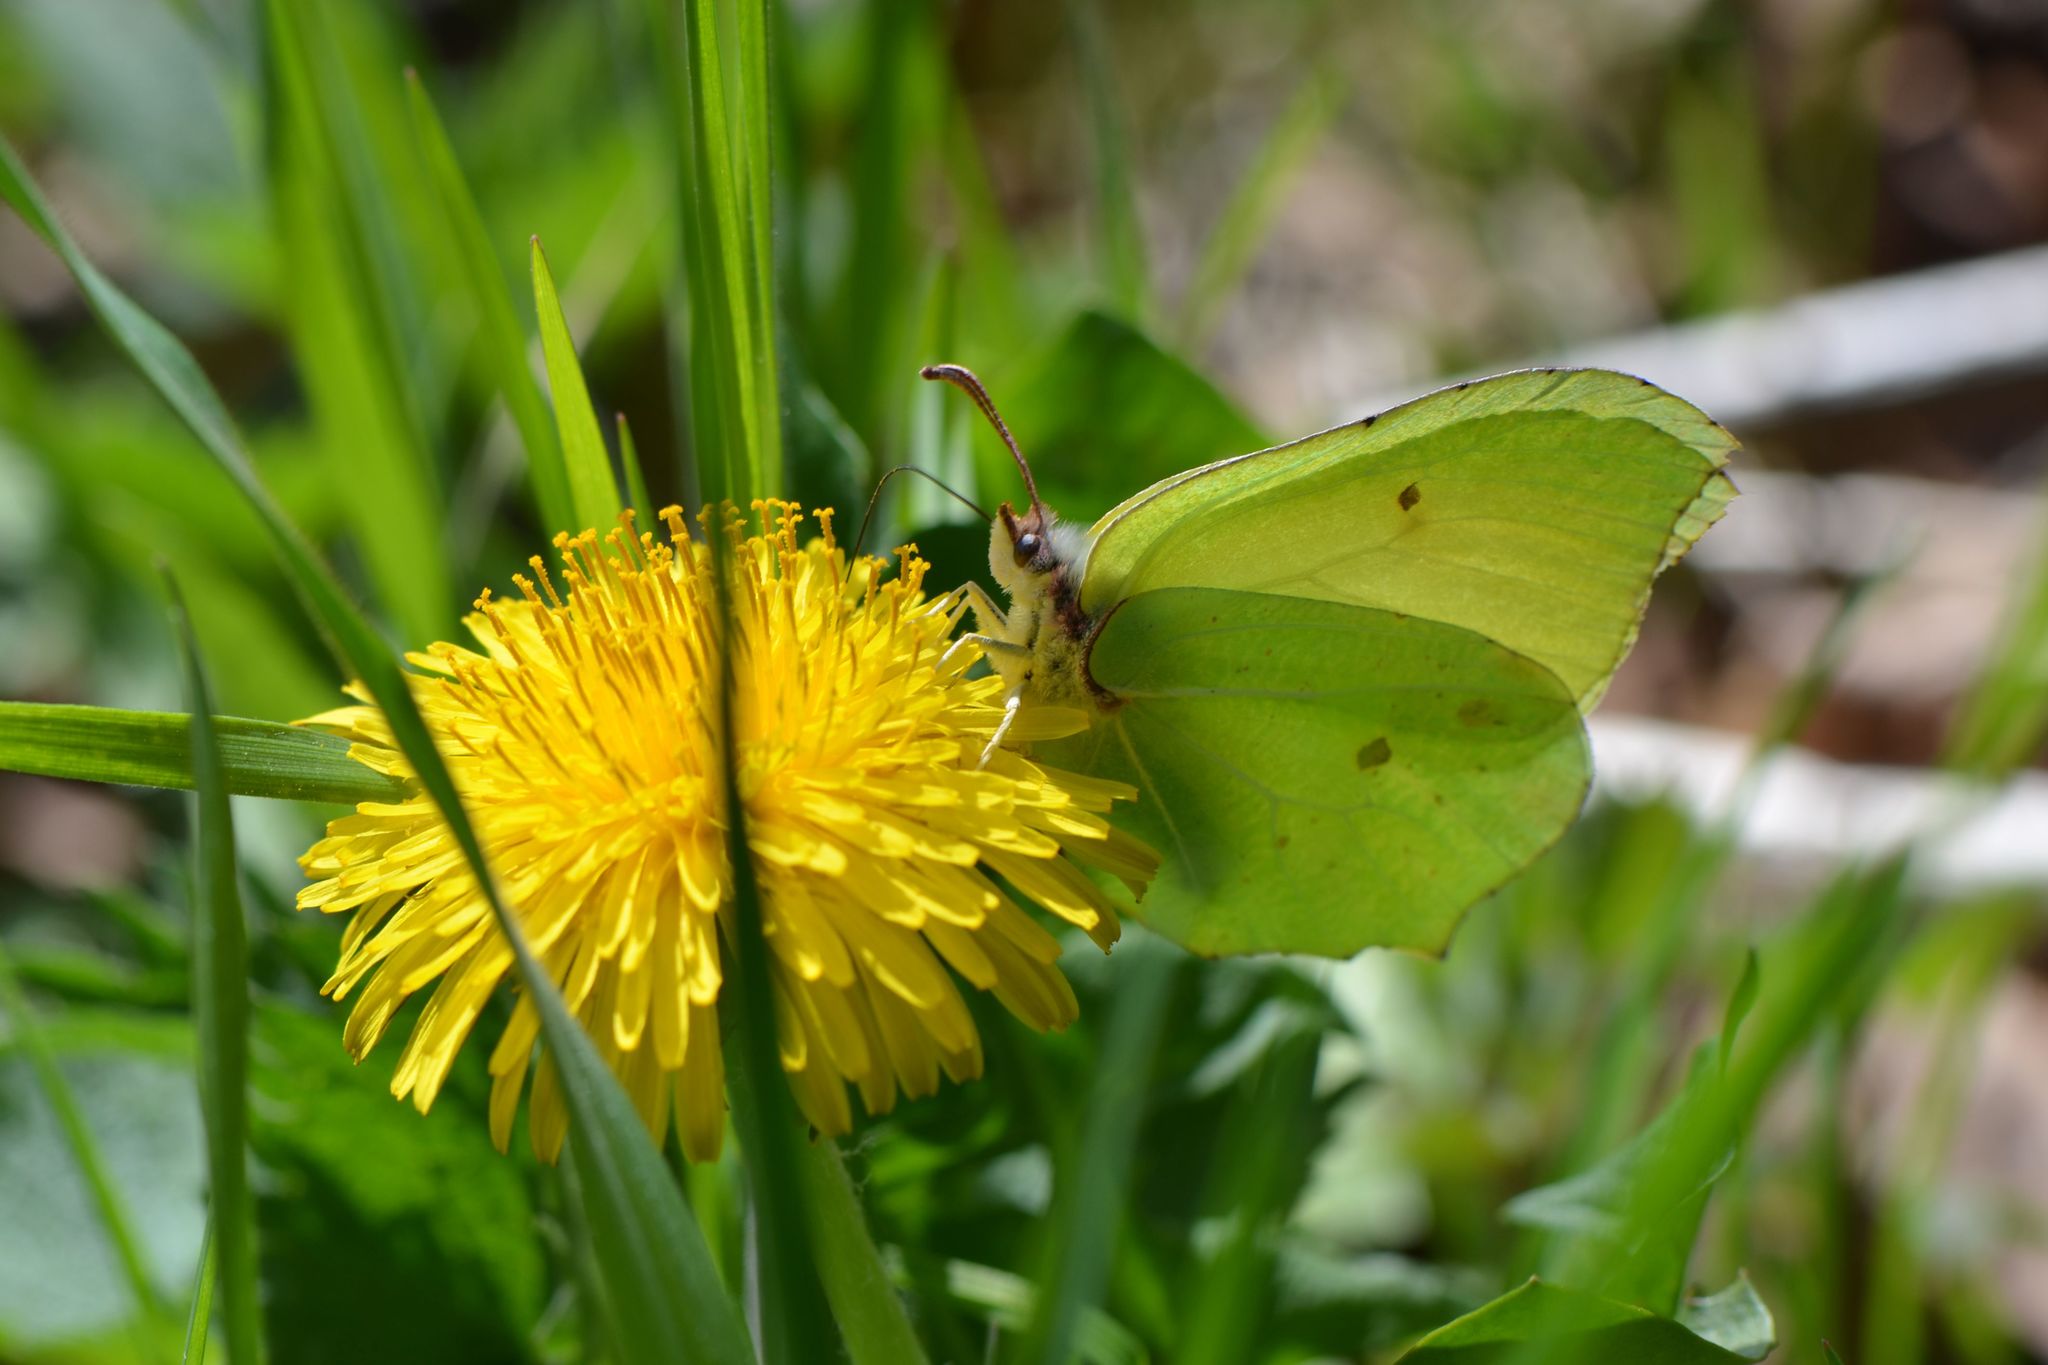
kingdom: Animalia
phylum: Arthropoda
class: Insecta
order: Lepidoptera
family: Pieridae
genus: Gonepteryx
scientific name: Gonepteryx rhamni
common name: Brimstone
